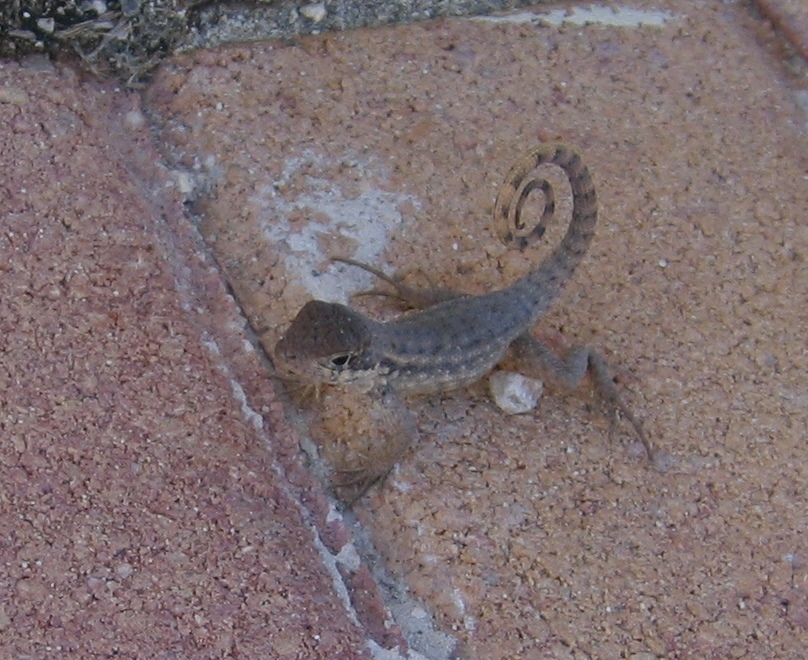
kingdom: Animalia
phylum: Chordata
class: Squamata
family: Leiocephalidae
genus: Leiocephalus
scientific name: Leiocephalus carinatus
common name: Northern curly-tailed lizard
